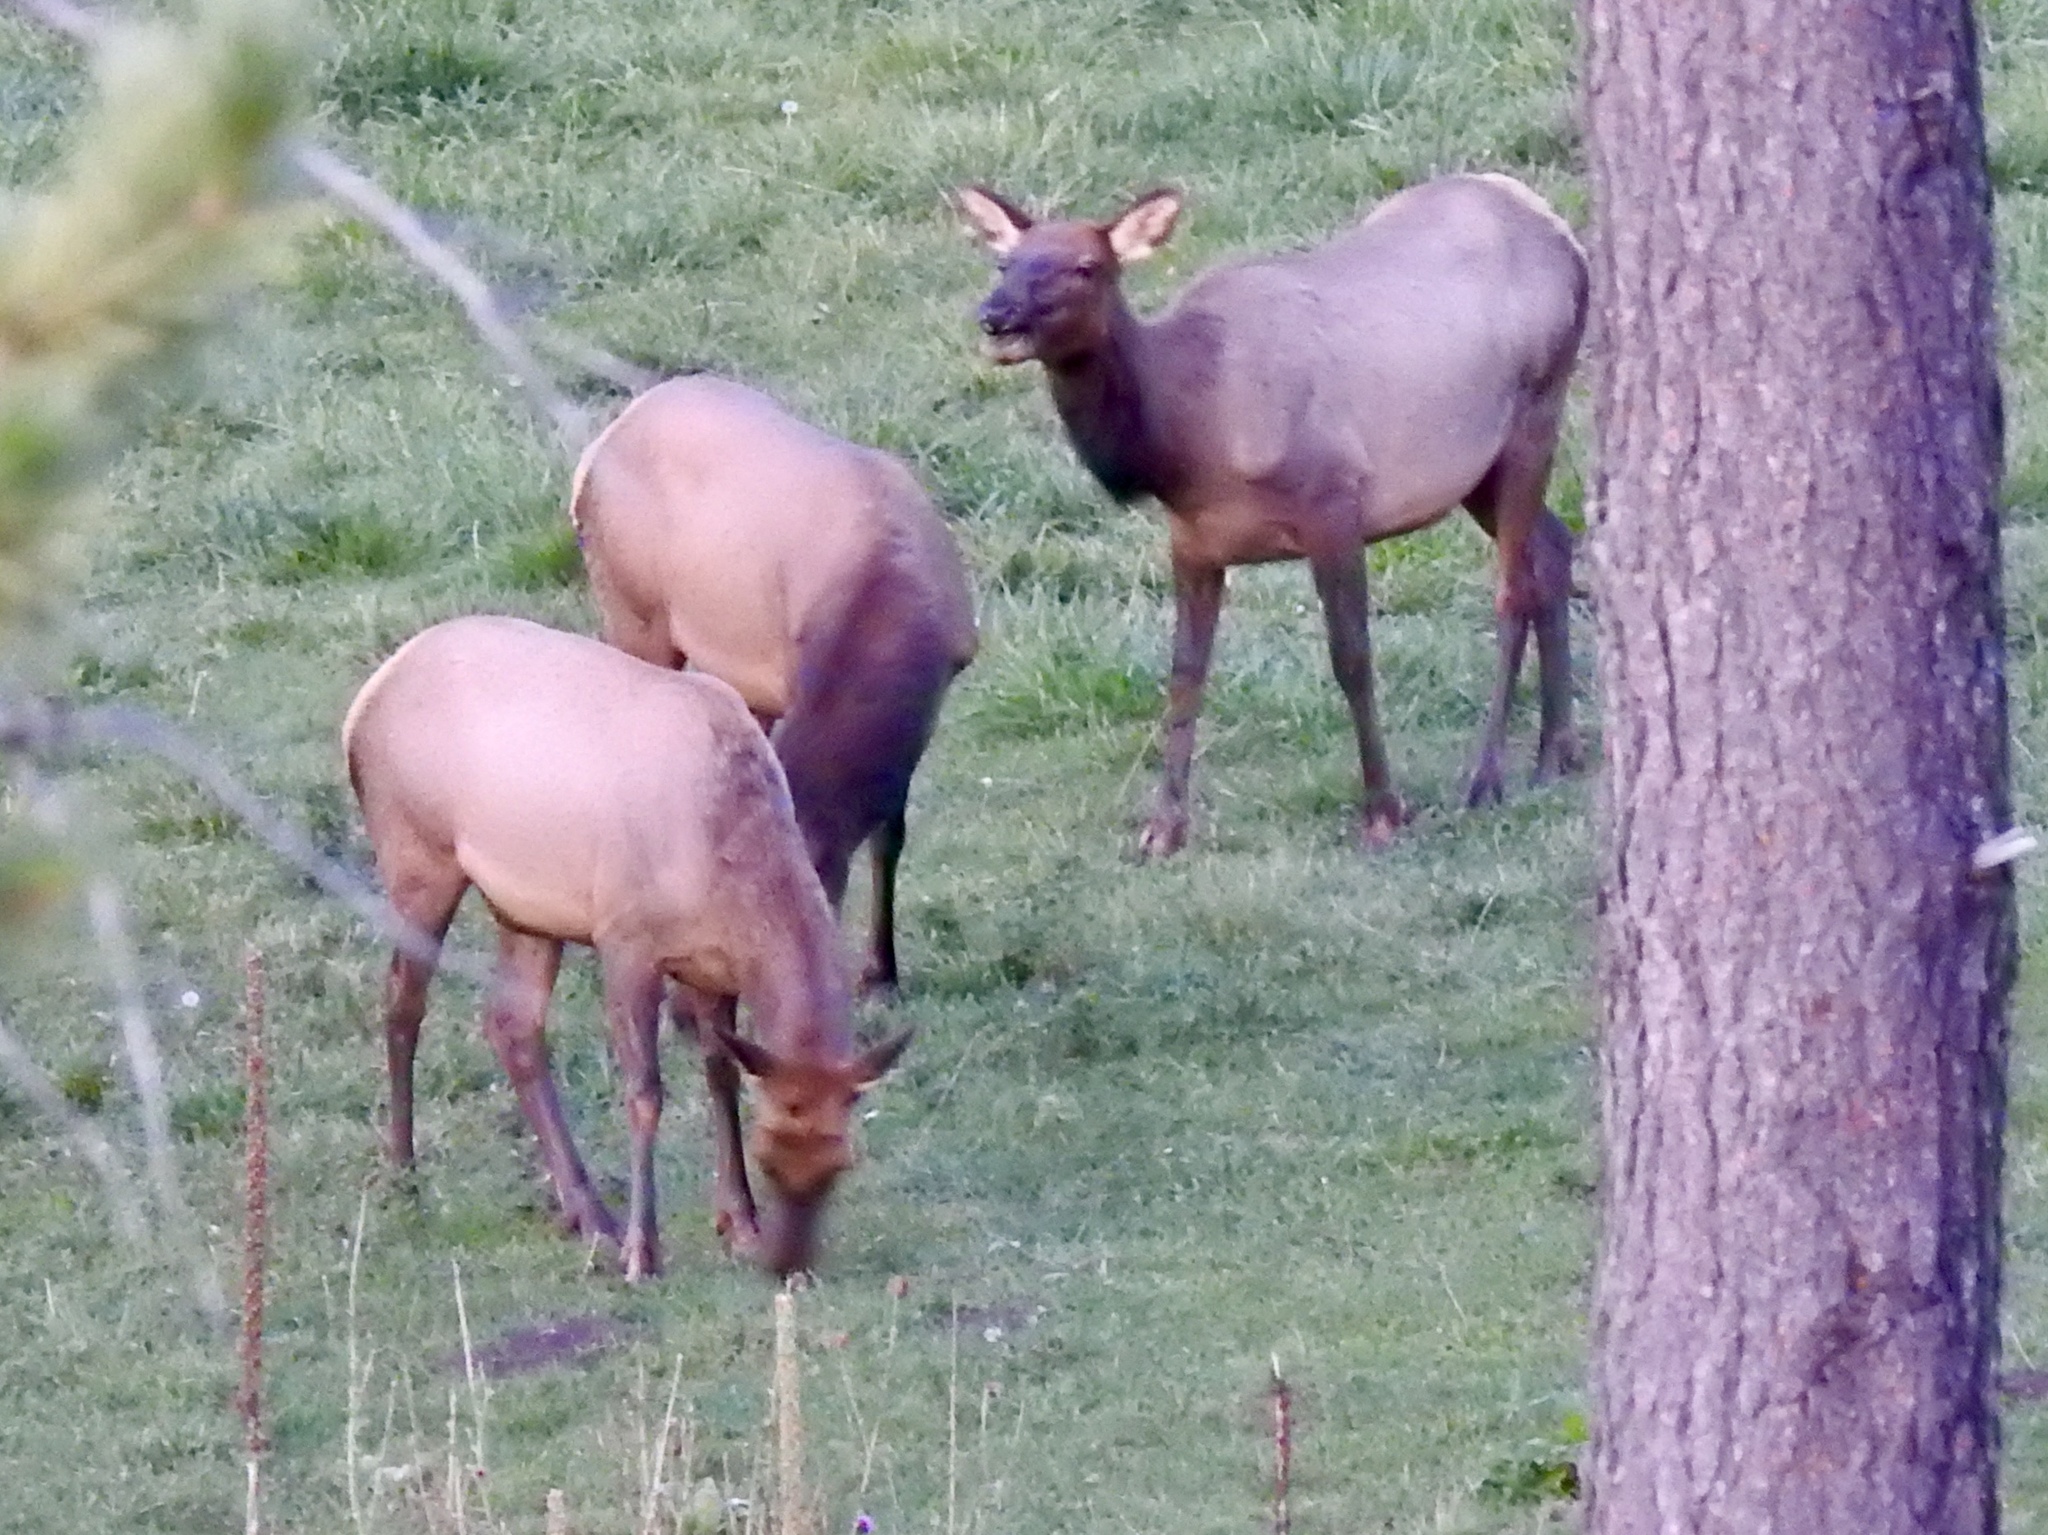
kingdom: Animalia
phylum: Chordata
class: Mammalia
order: Artiodactyla
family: Cervidae
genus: Cervus
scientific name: Cervus elaphus
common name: Red deer
